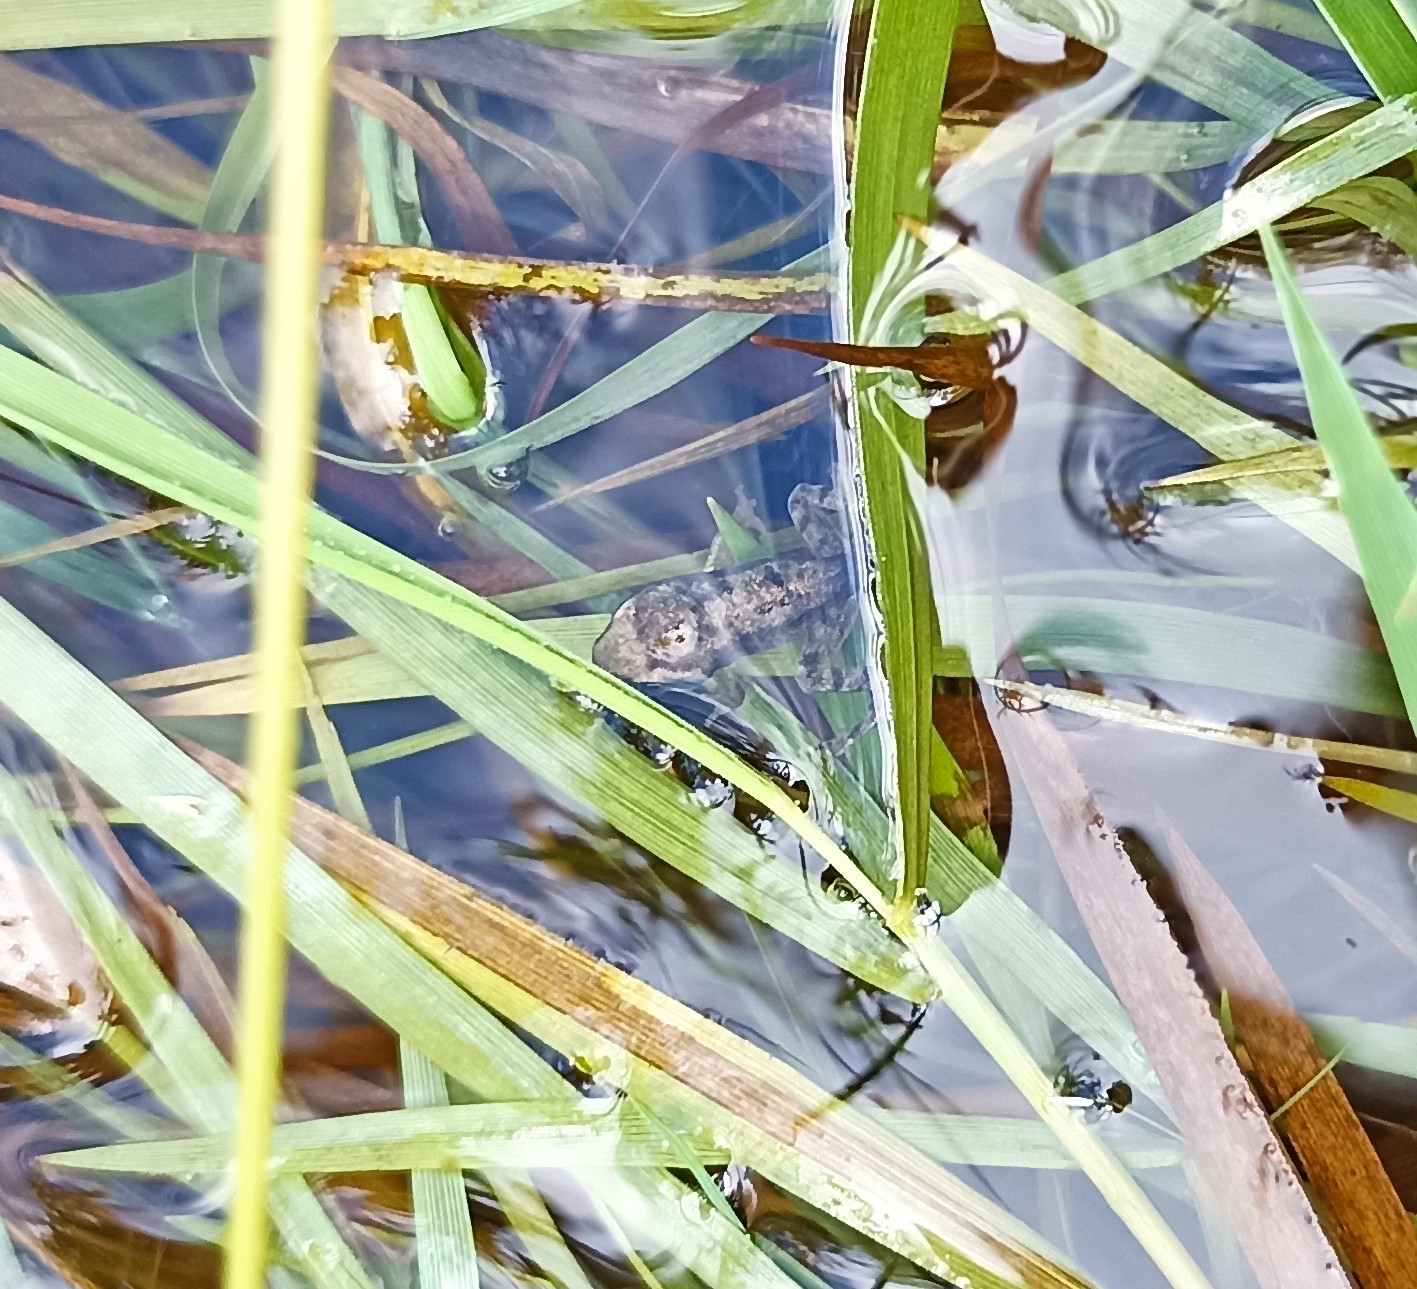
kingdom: Animalia
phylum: Chordata
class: Amphibia
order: Anura
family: Ranidae
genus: Rana
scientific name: Rana temporaria
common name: Common frog
